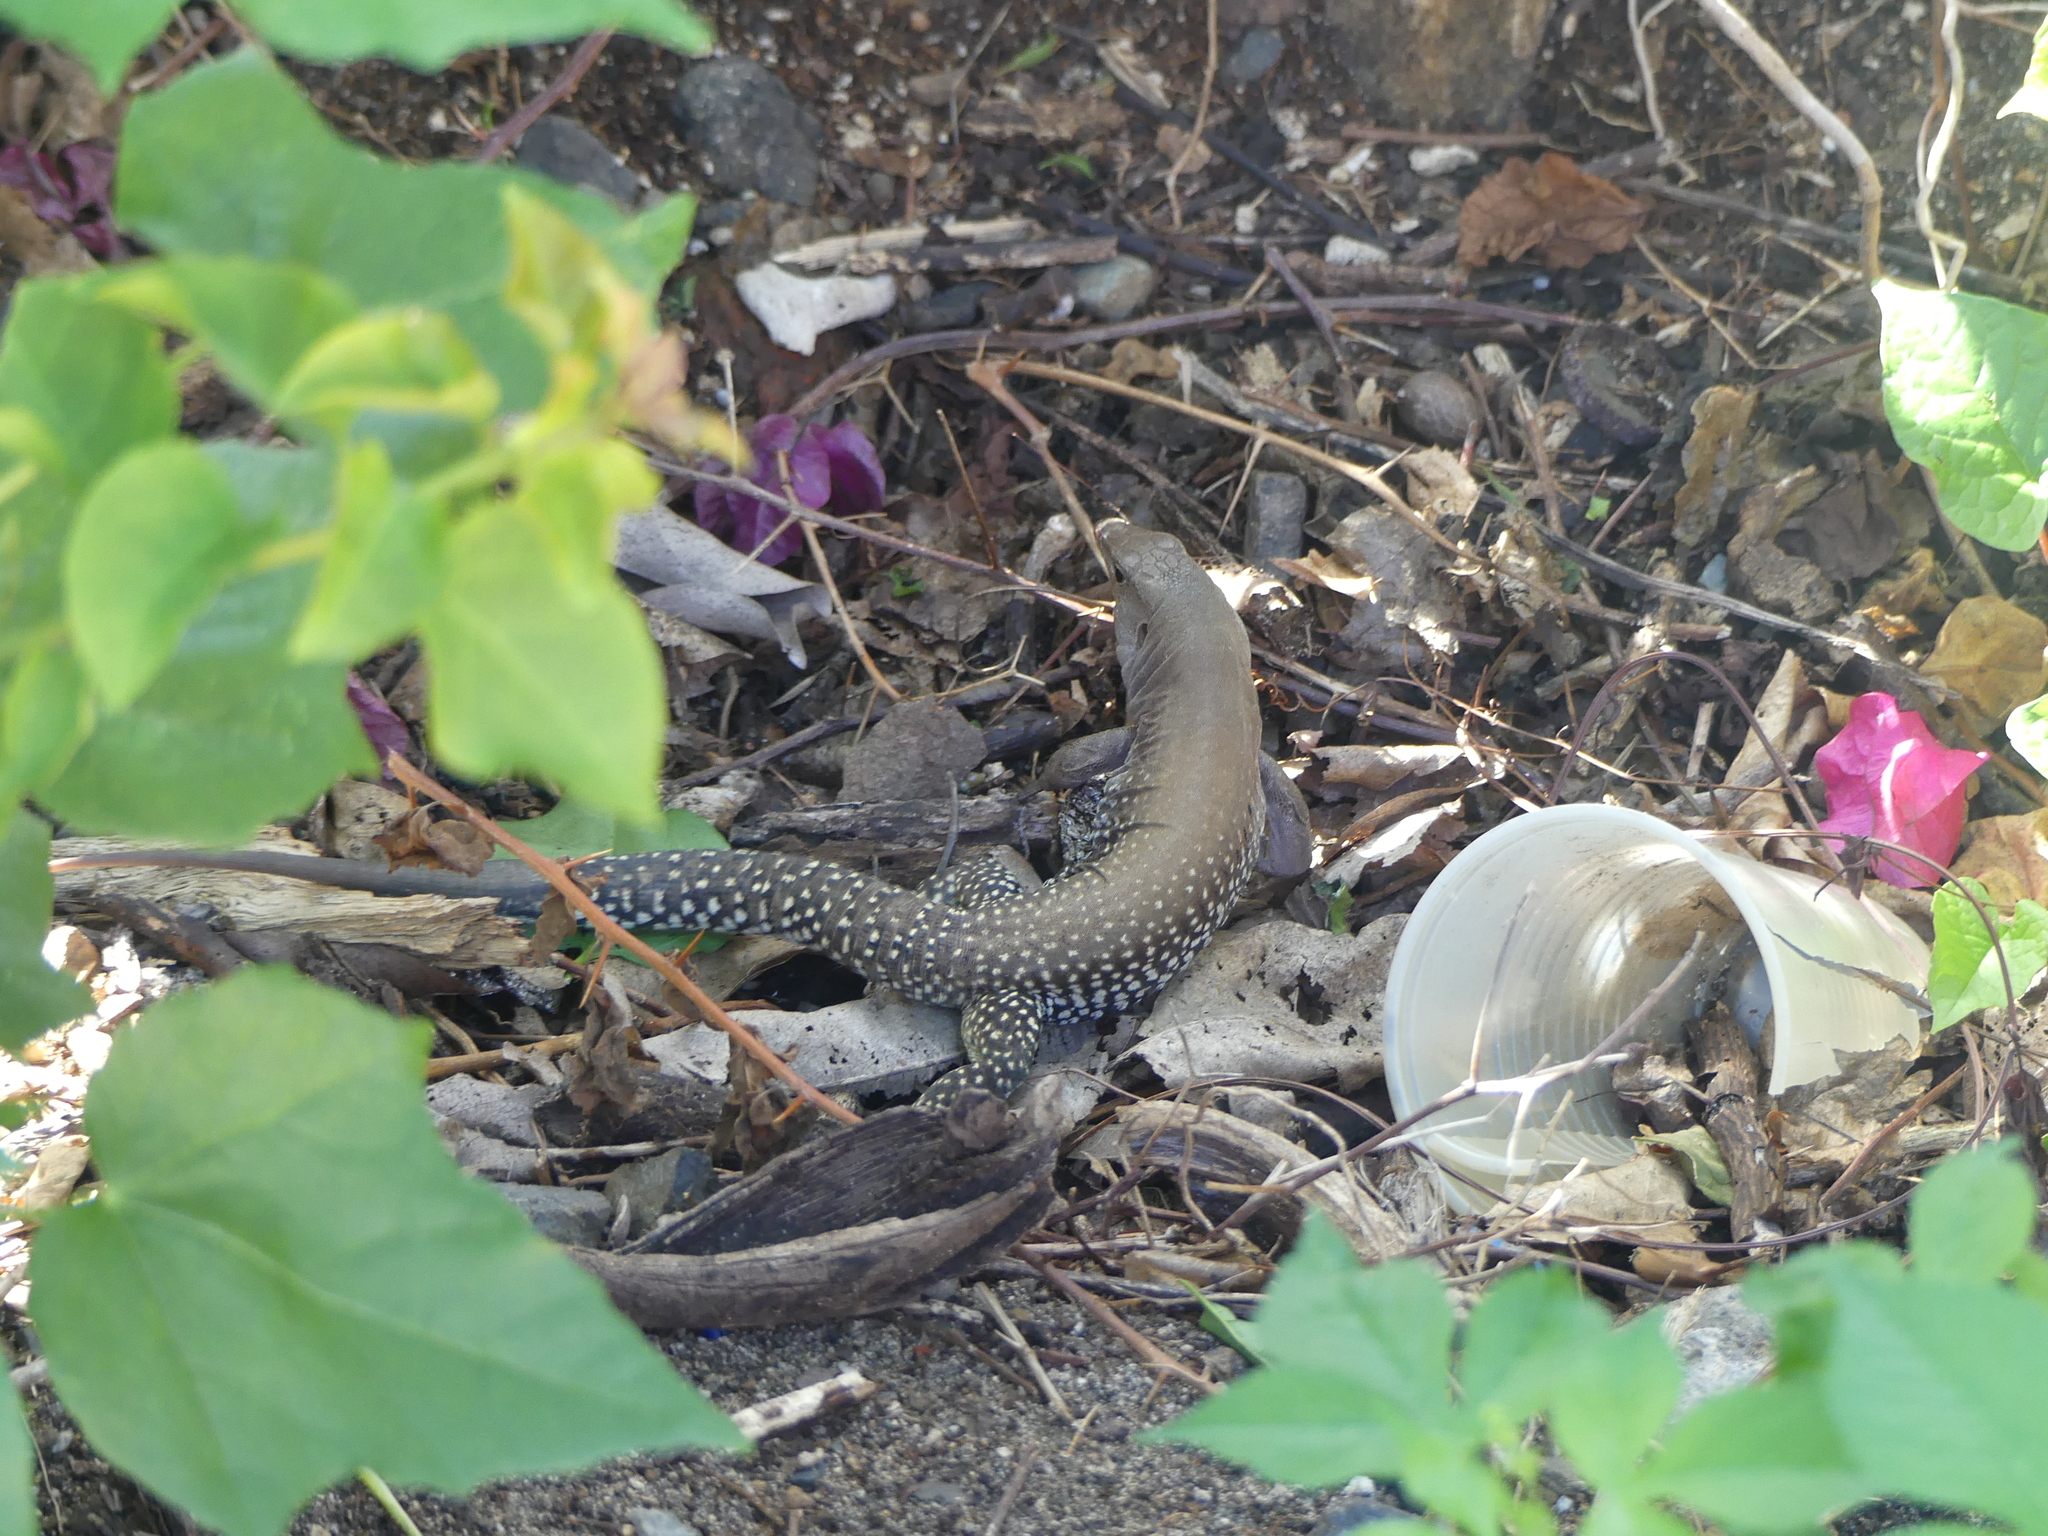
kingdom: Animalia
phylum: Chordata
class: Squamata
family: Teiidae
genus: Pholidoscelis
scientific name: Pholidoscelis exsul
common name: Common puerto rican ameiva
